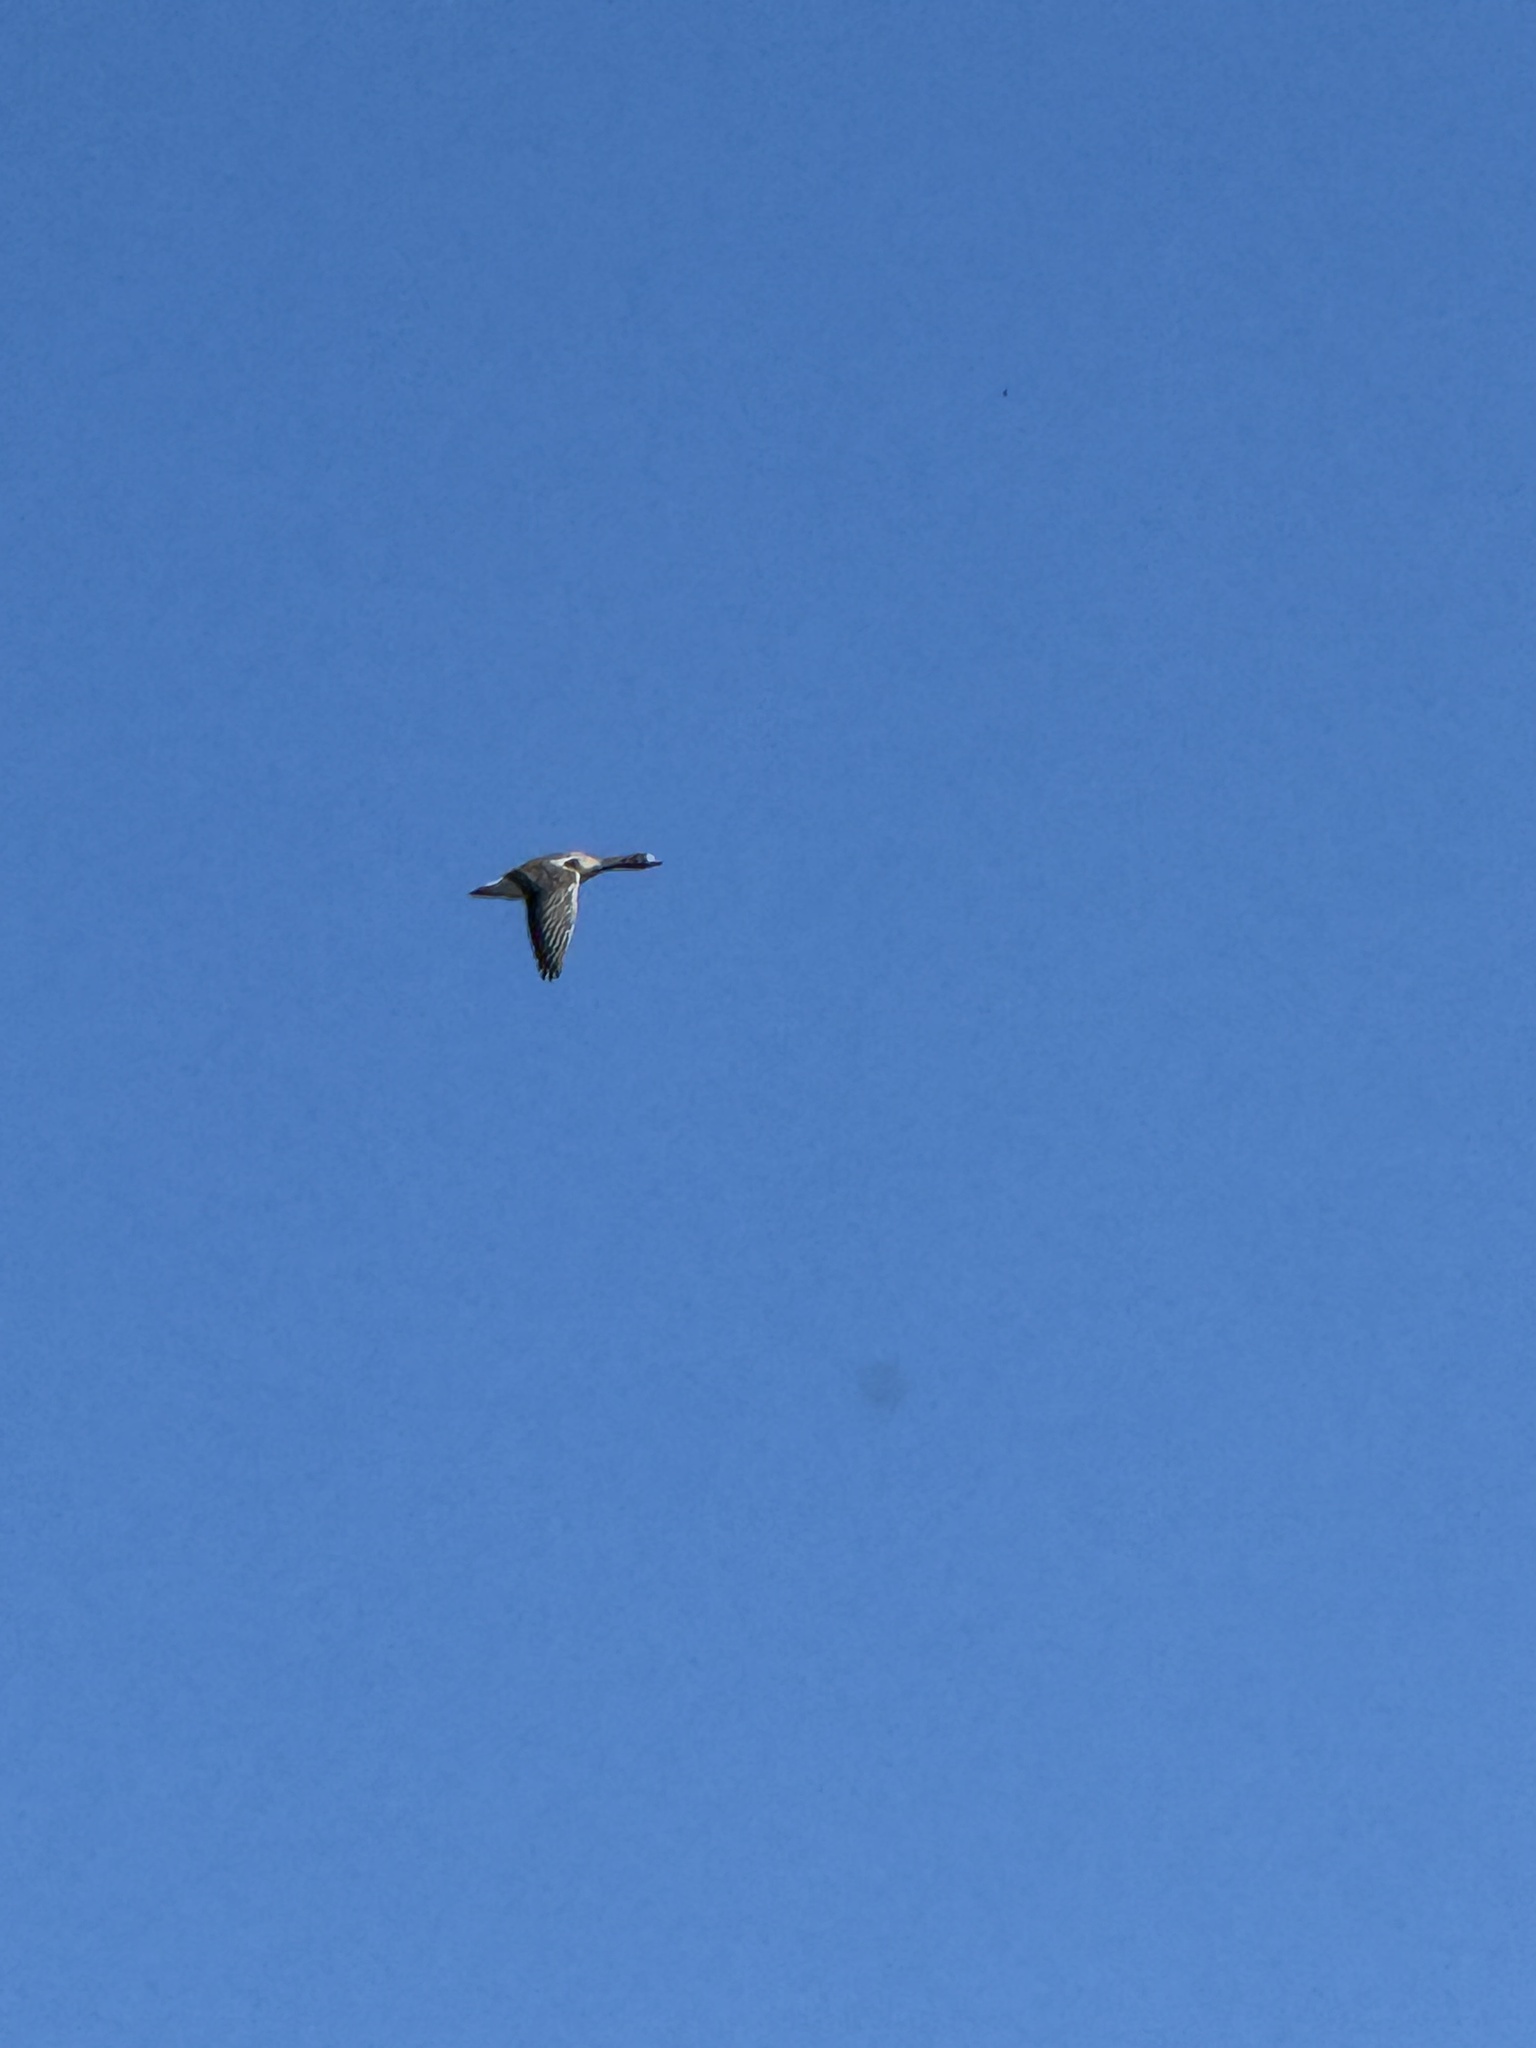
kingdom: Animalia
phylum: Chordata
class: Aves
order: Anseriformes
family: Anatidae
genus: Spatula
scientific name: Spatula clypeata
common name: Northern shoveler
